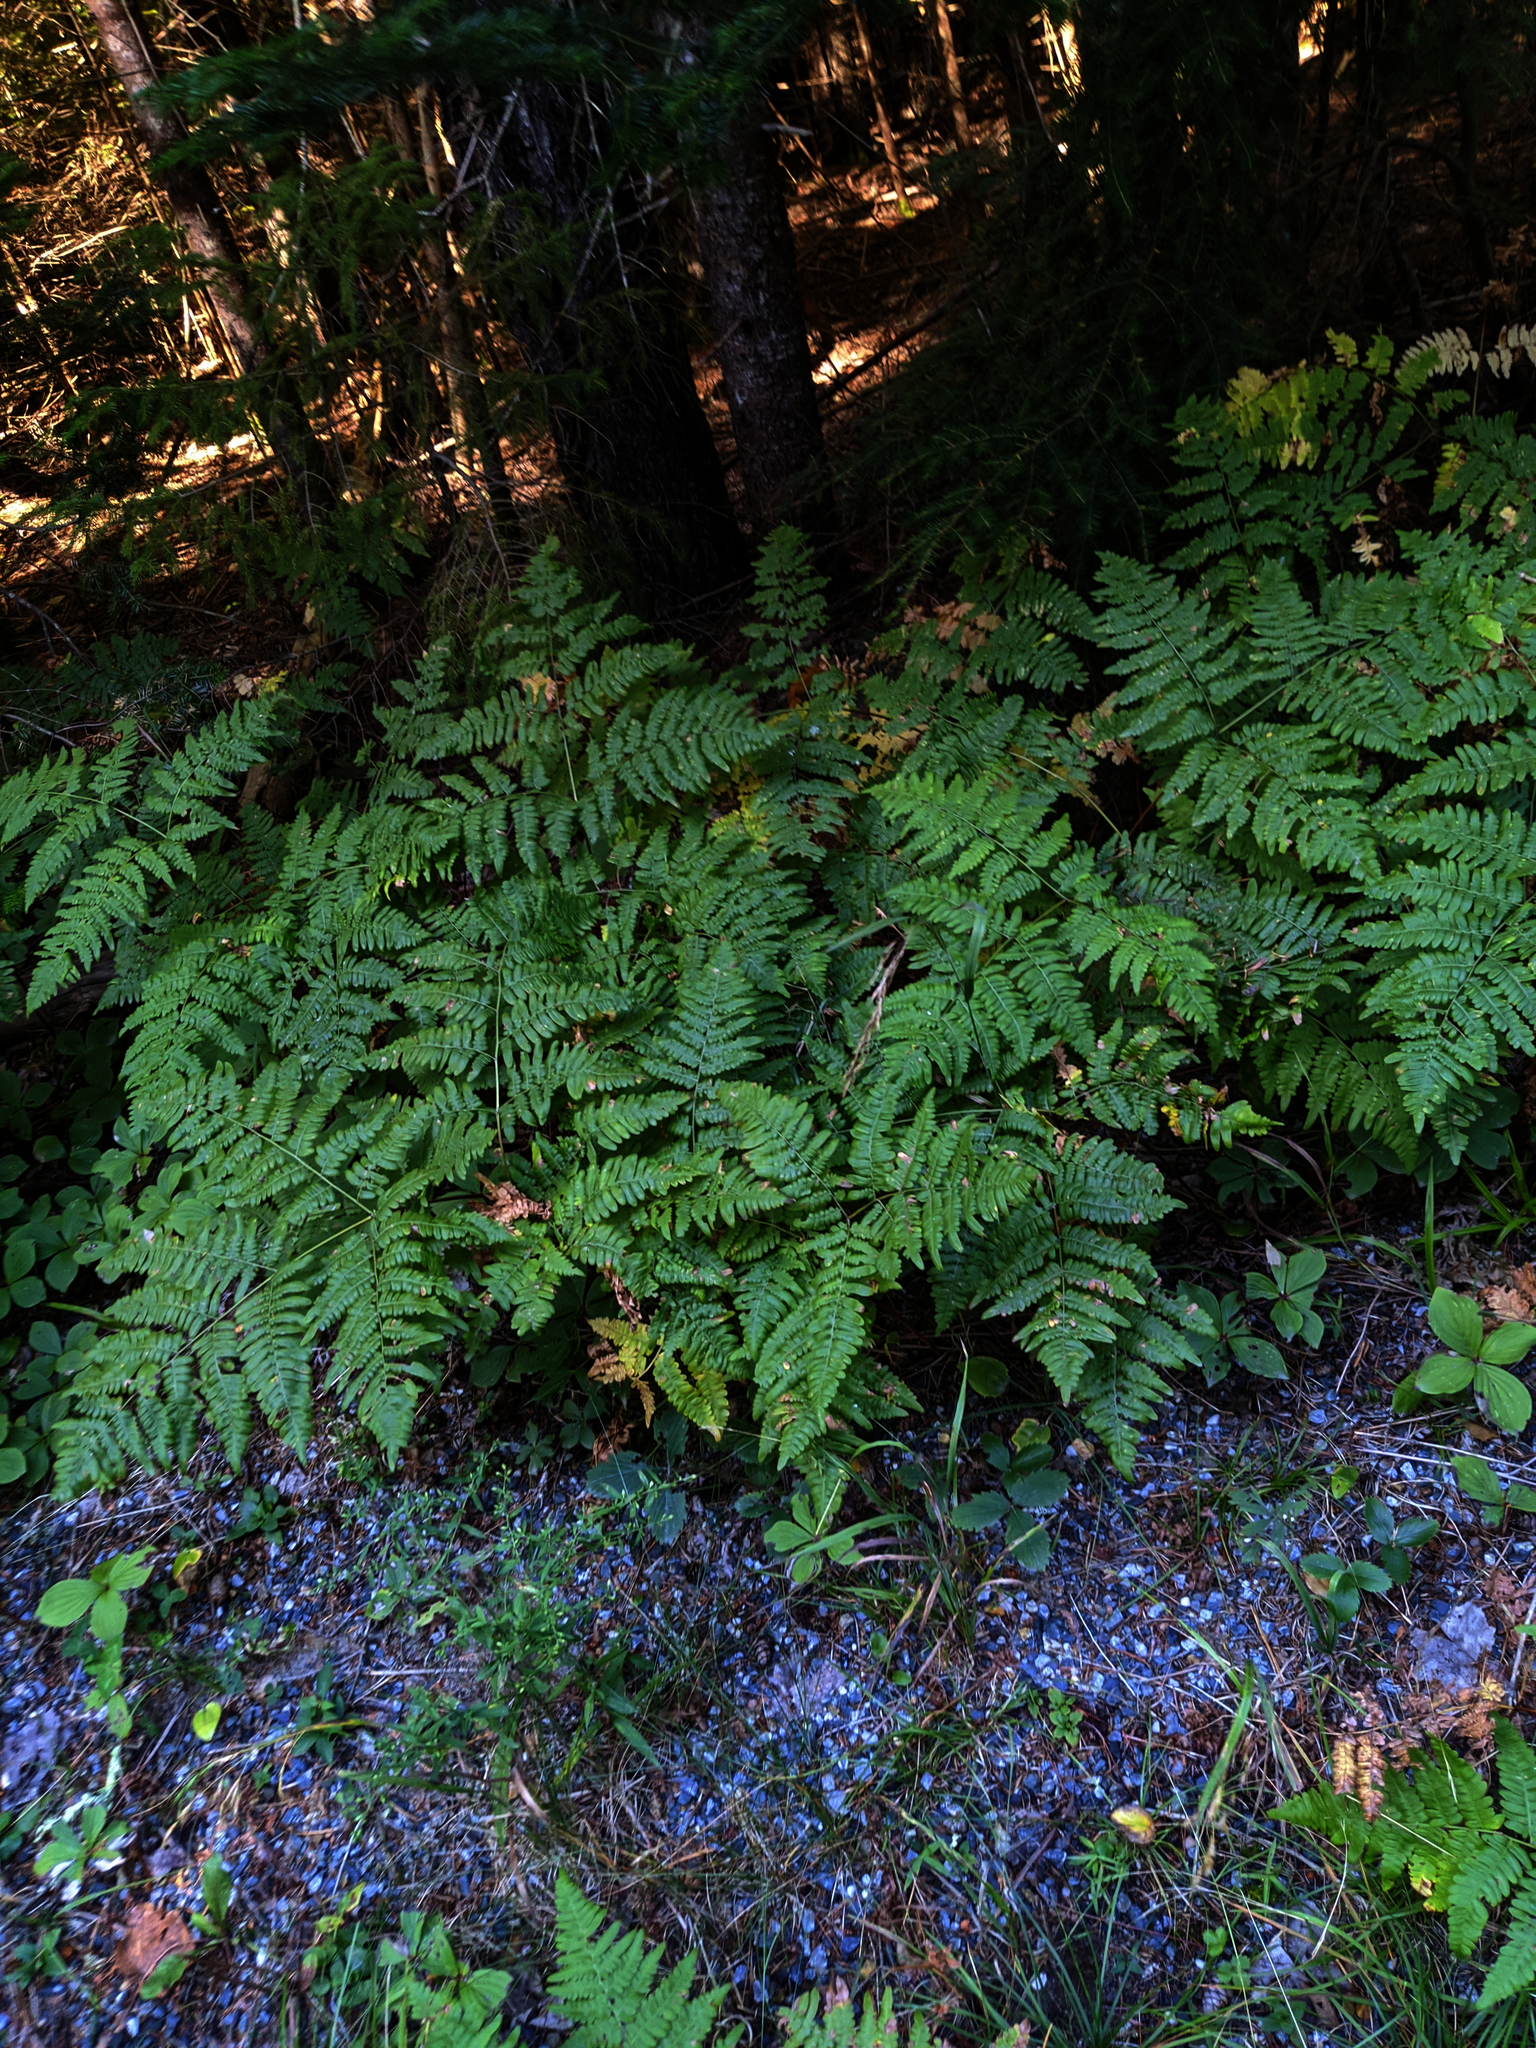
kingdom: Plantae
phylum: Tracheophyta
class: Polypodiopsida
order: Polypodiales
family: Dennstaedtiaceae
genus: Pteridium
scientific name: Pteridium aquilinum
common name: Bracken
